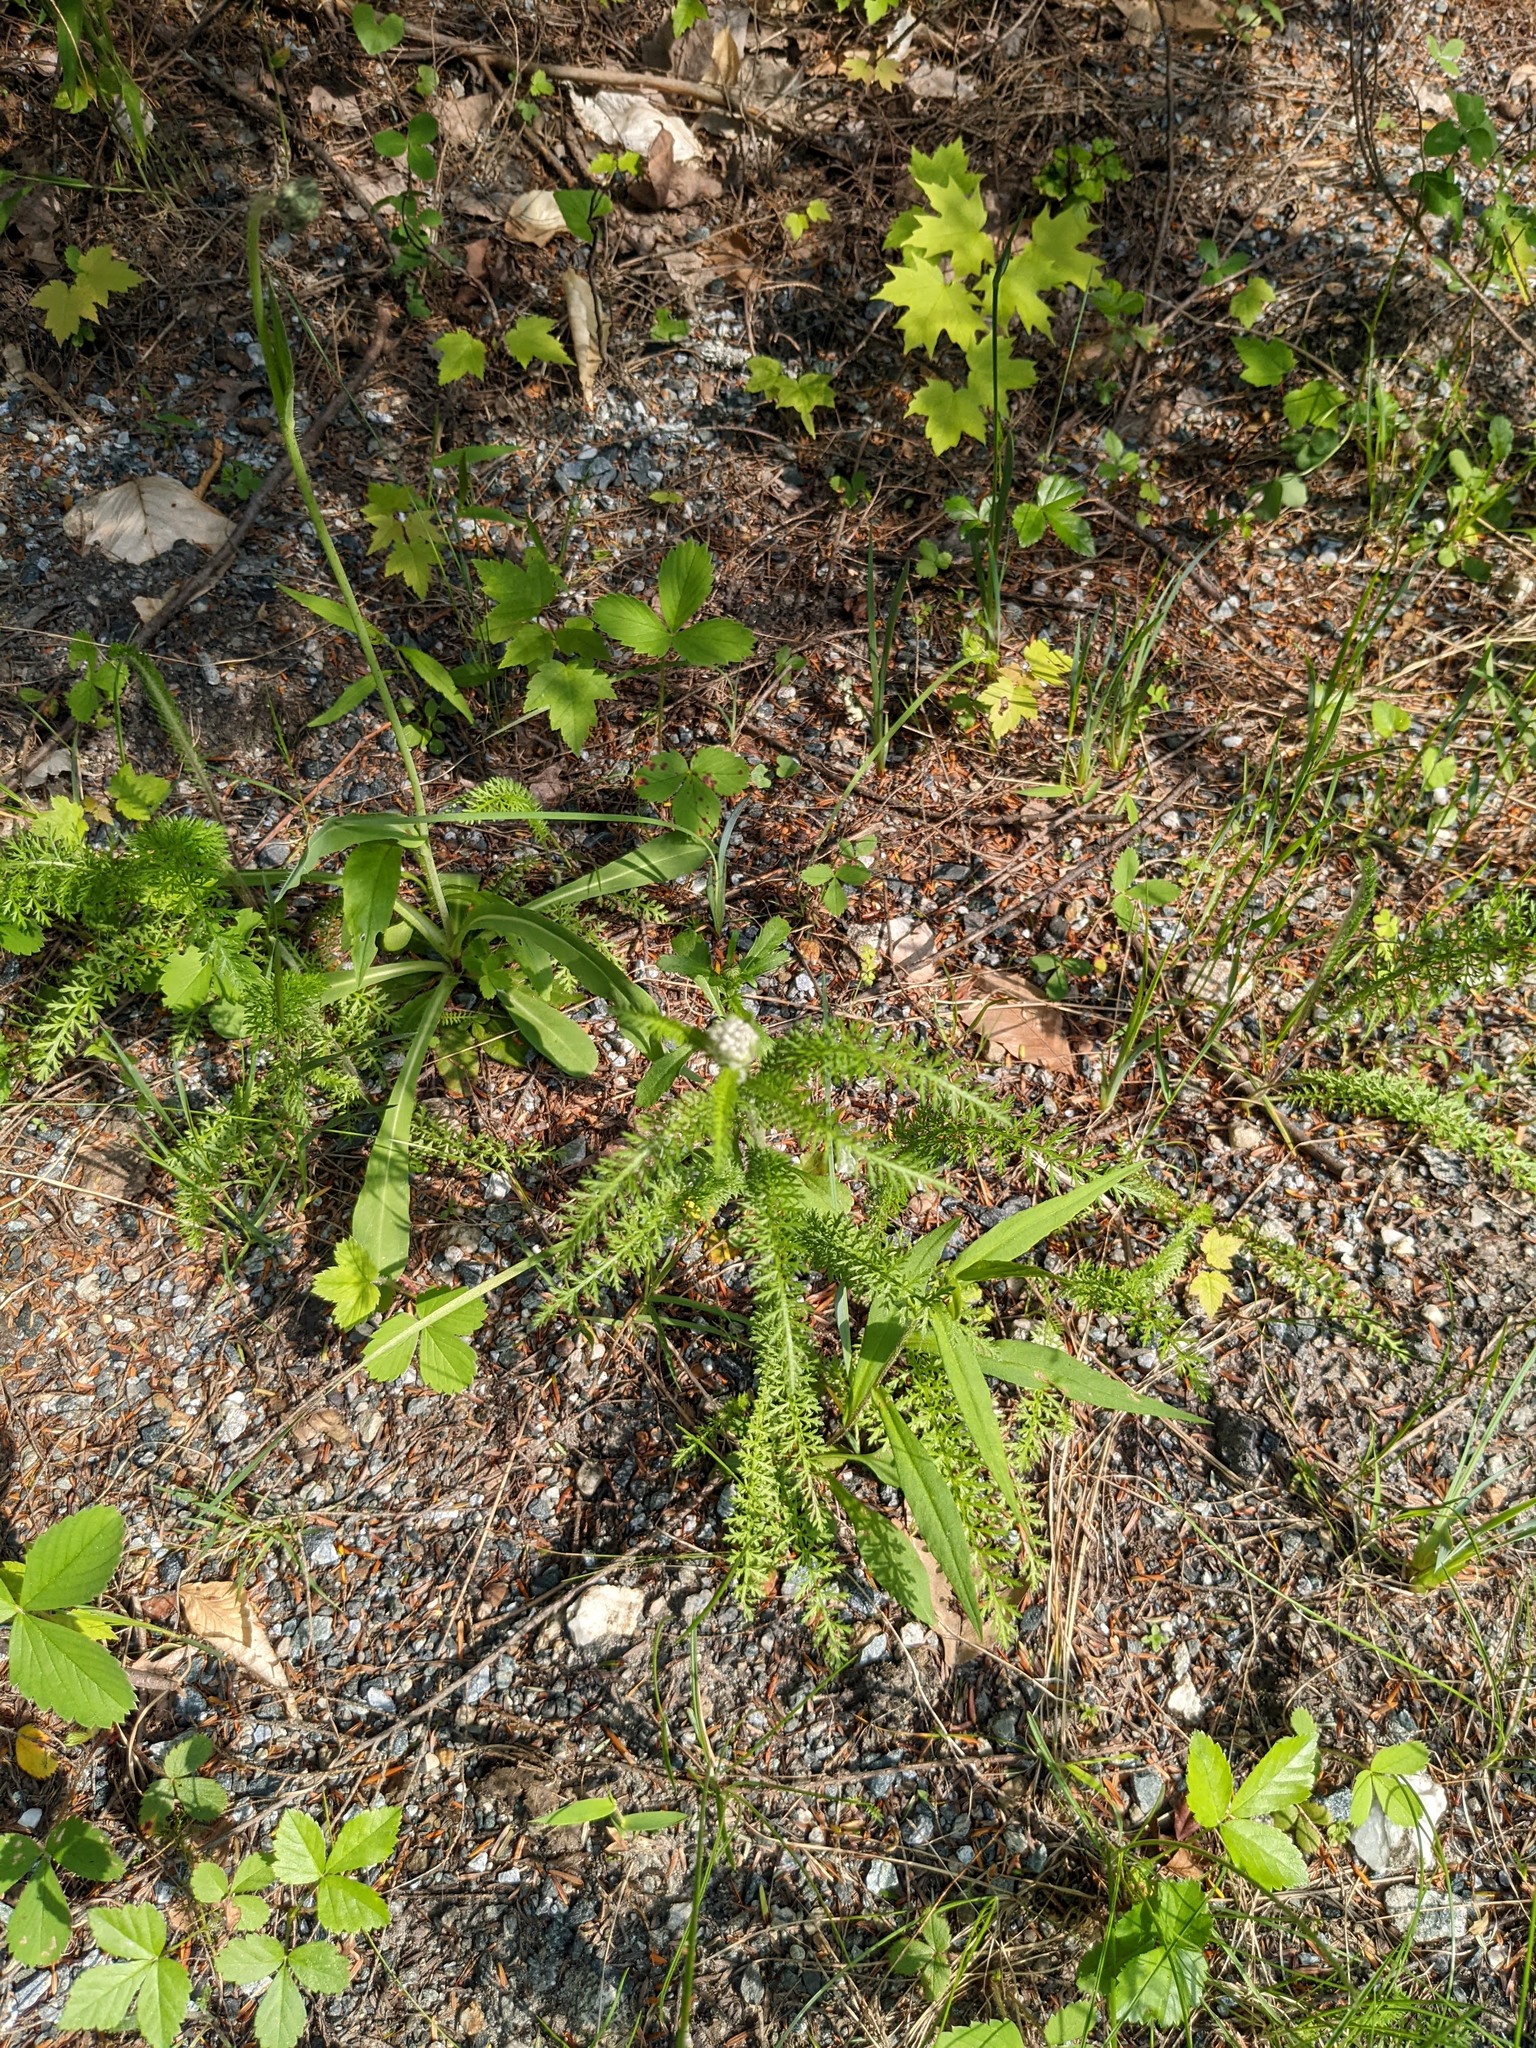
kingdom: Plantae
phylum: Tracheophyta
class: Magnoliopsida
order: Asterales
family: Asteraceae
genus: Achillea
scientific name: Achillea millefolium
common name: Yarrow
